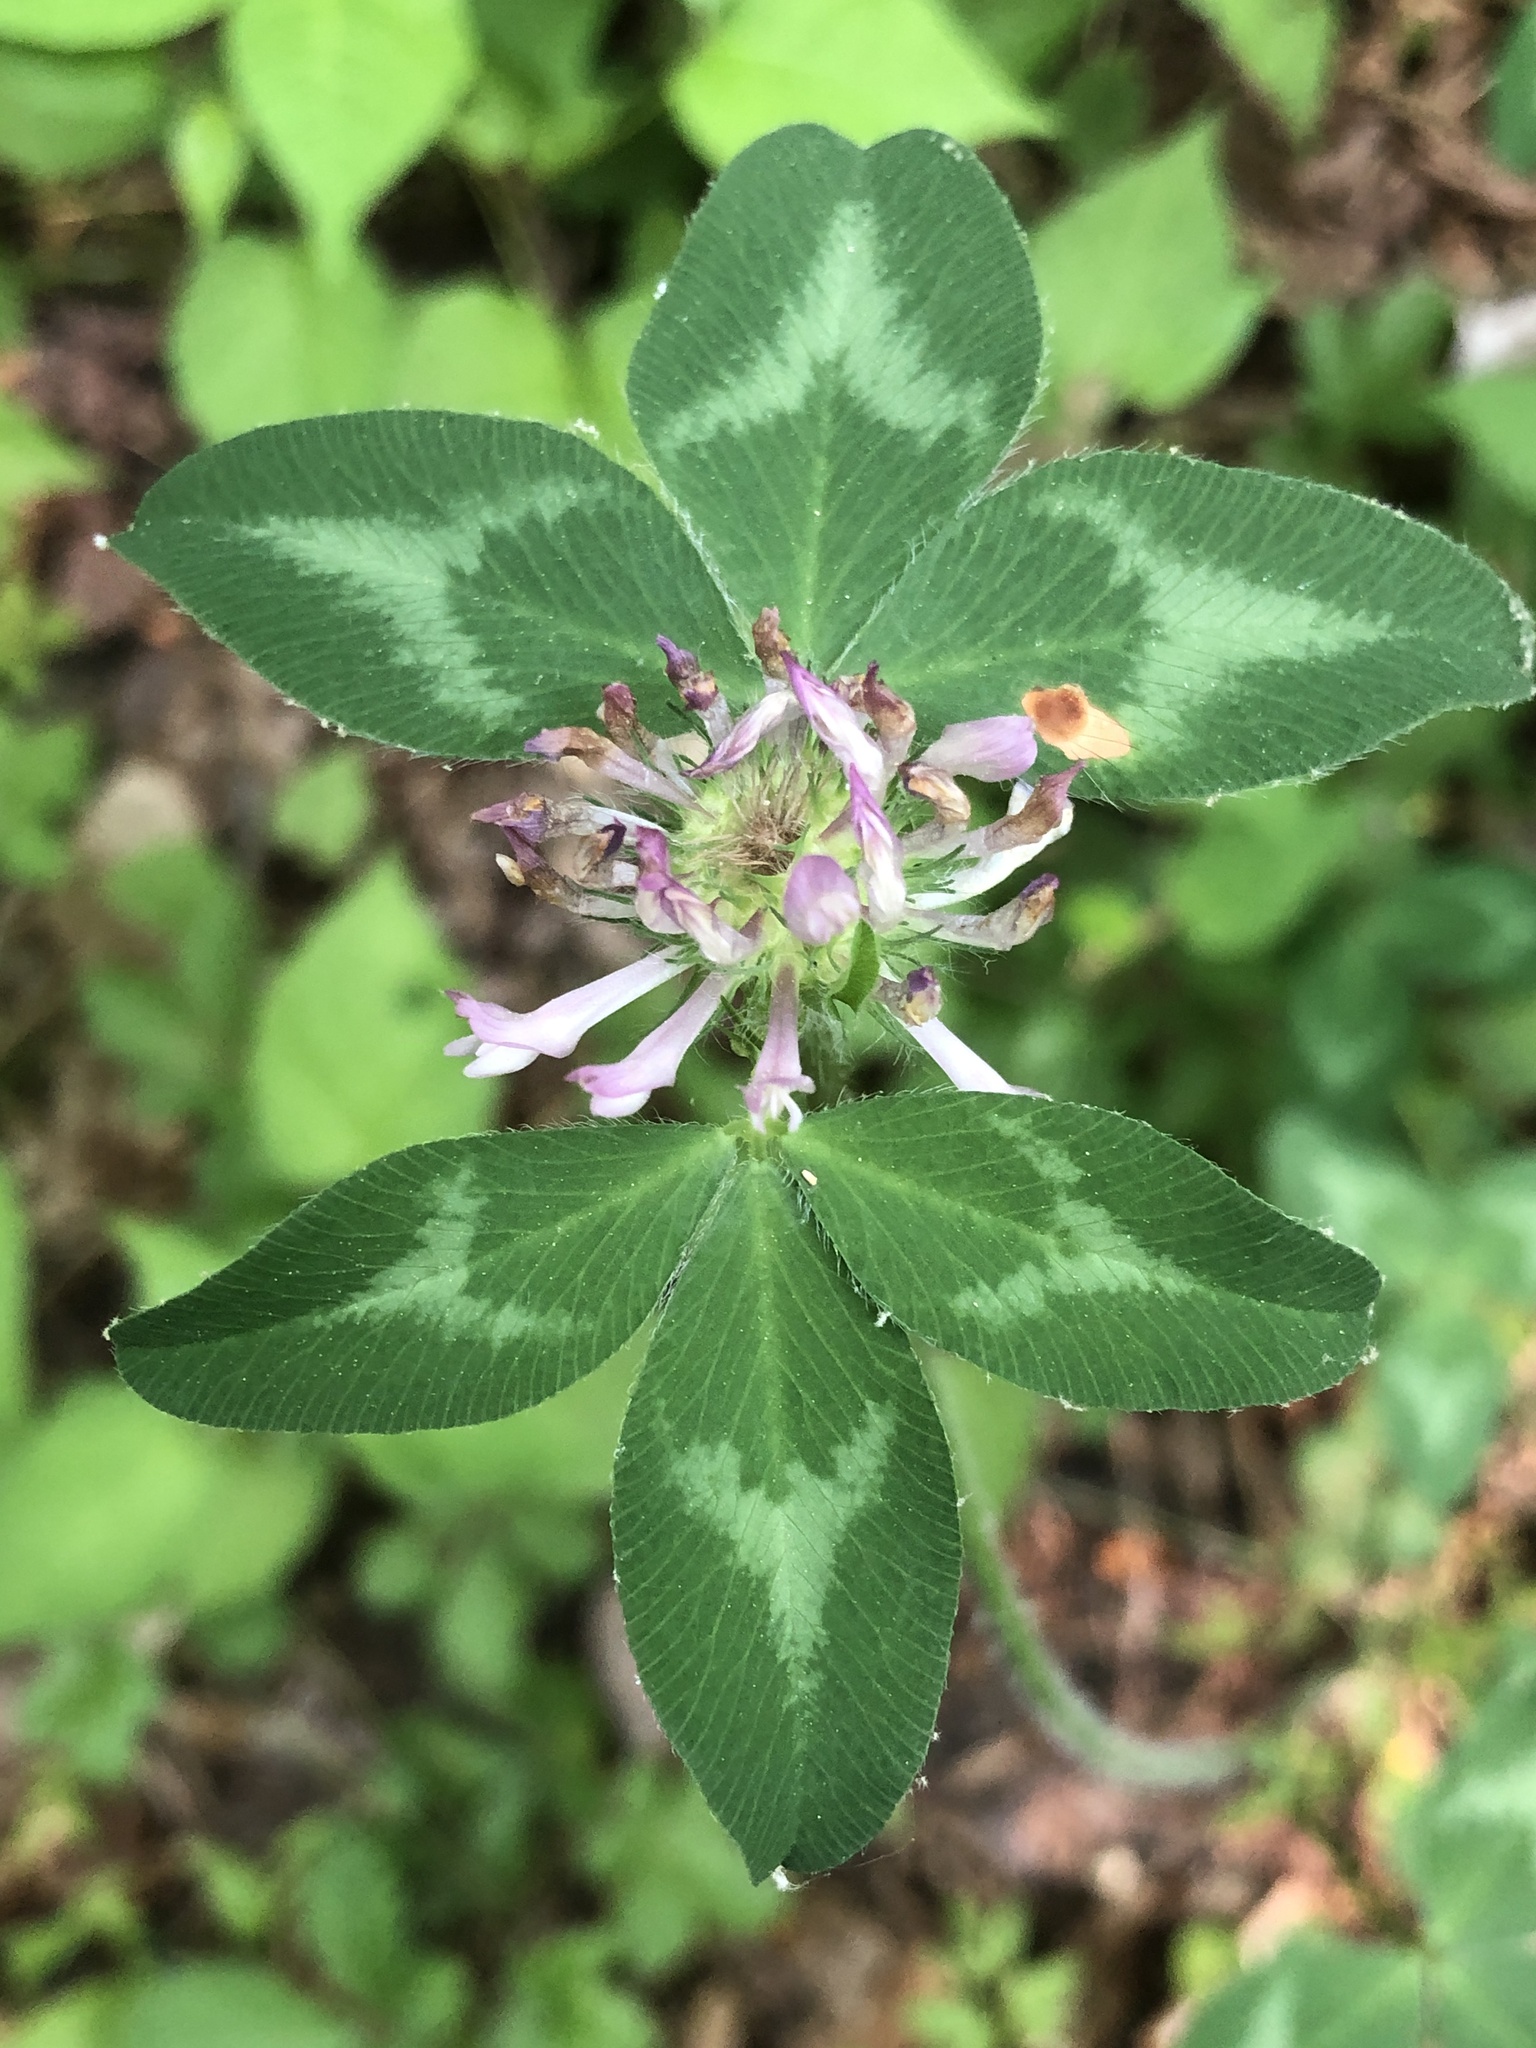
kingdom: Plantae
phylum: Tracheophyta
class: Magnoliopsida
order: Fabales
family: Fabaceae
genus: Trifolium
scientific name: Trifolium pratense
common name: Red clover
